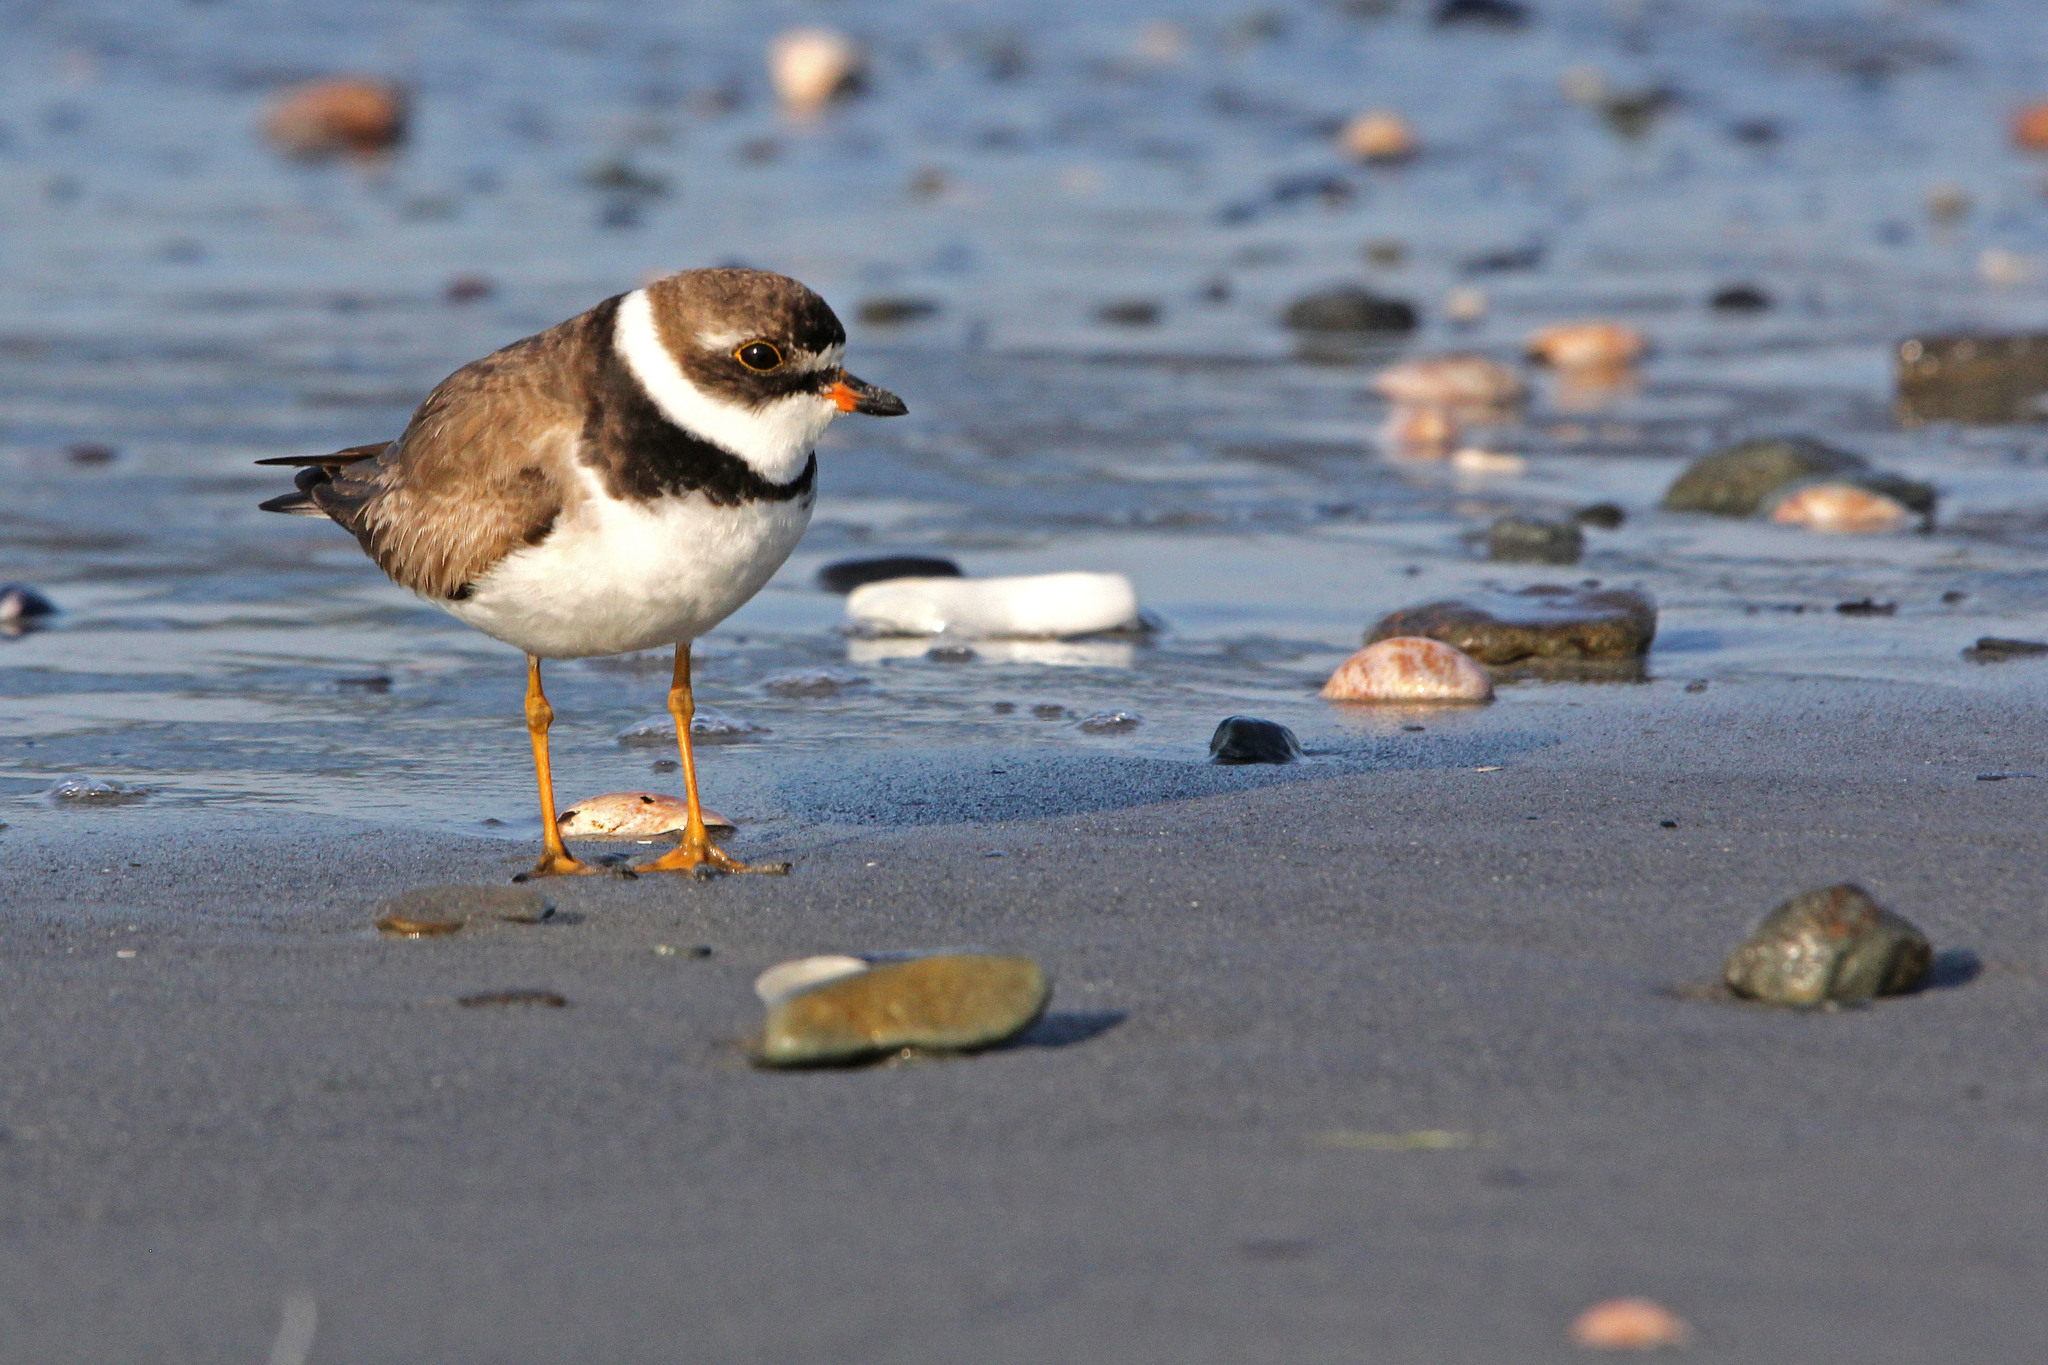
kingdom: Animalia
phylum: Chordata
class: Aves
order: Charadriiformes
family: Charadriidae
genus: Charadrius
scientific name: Charadrius semipalmatus
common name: Semipalmated plover
